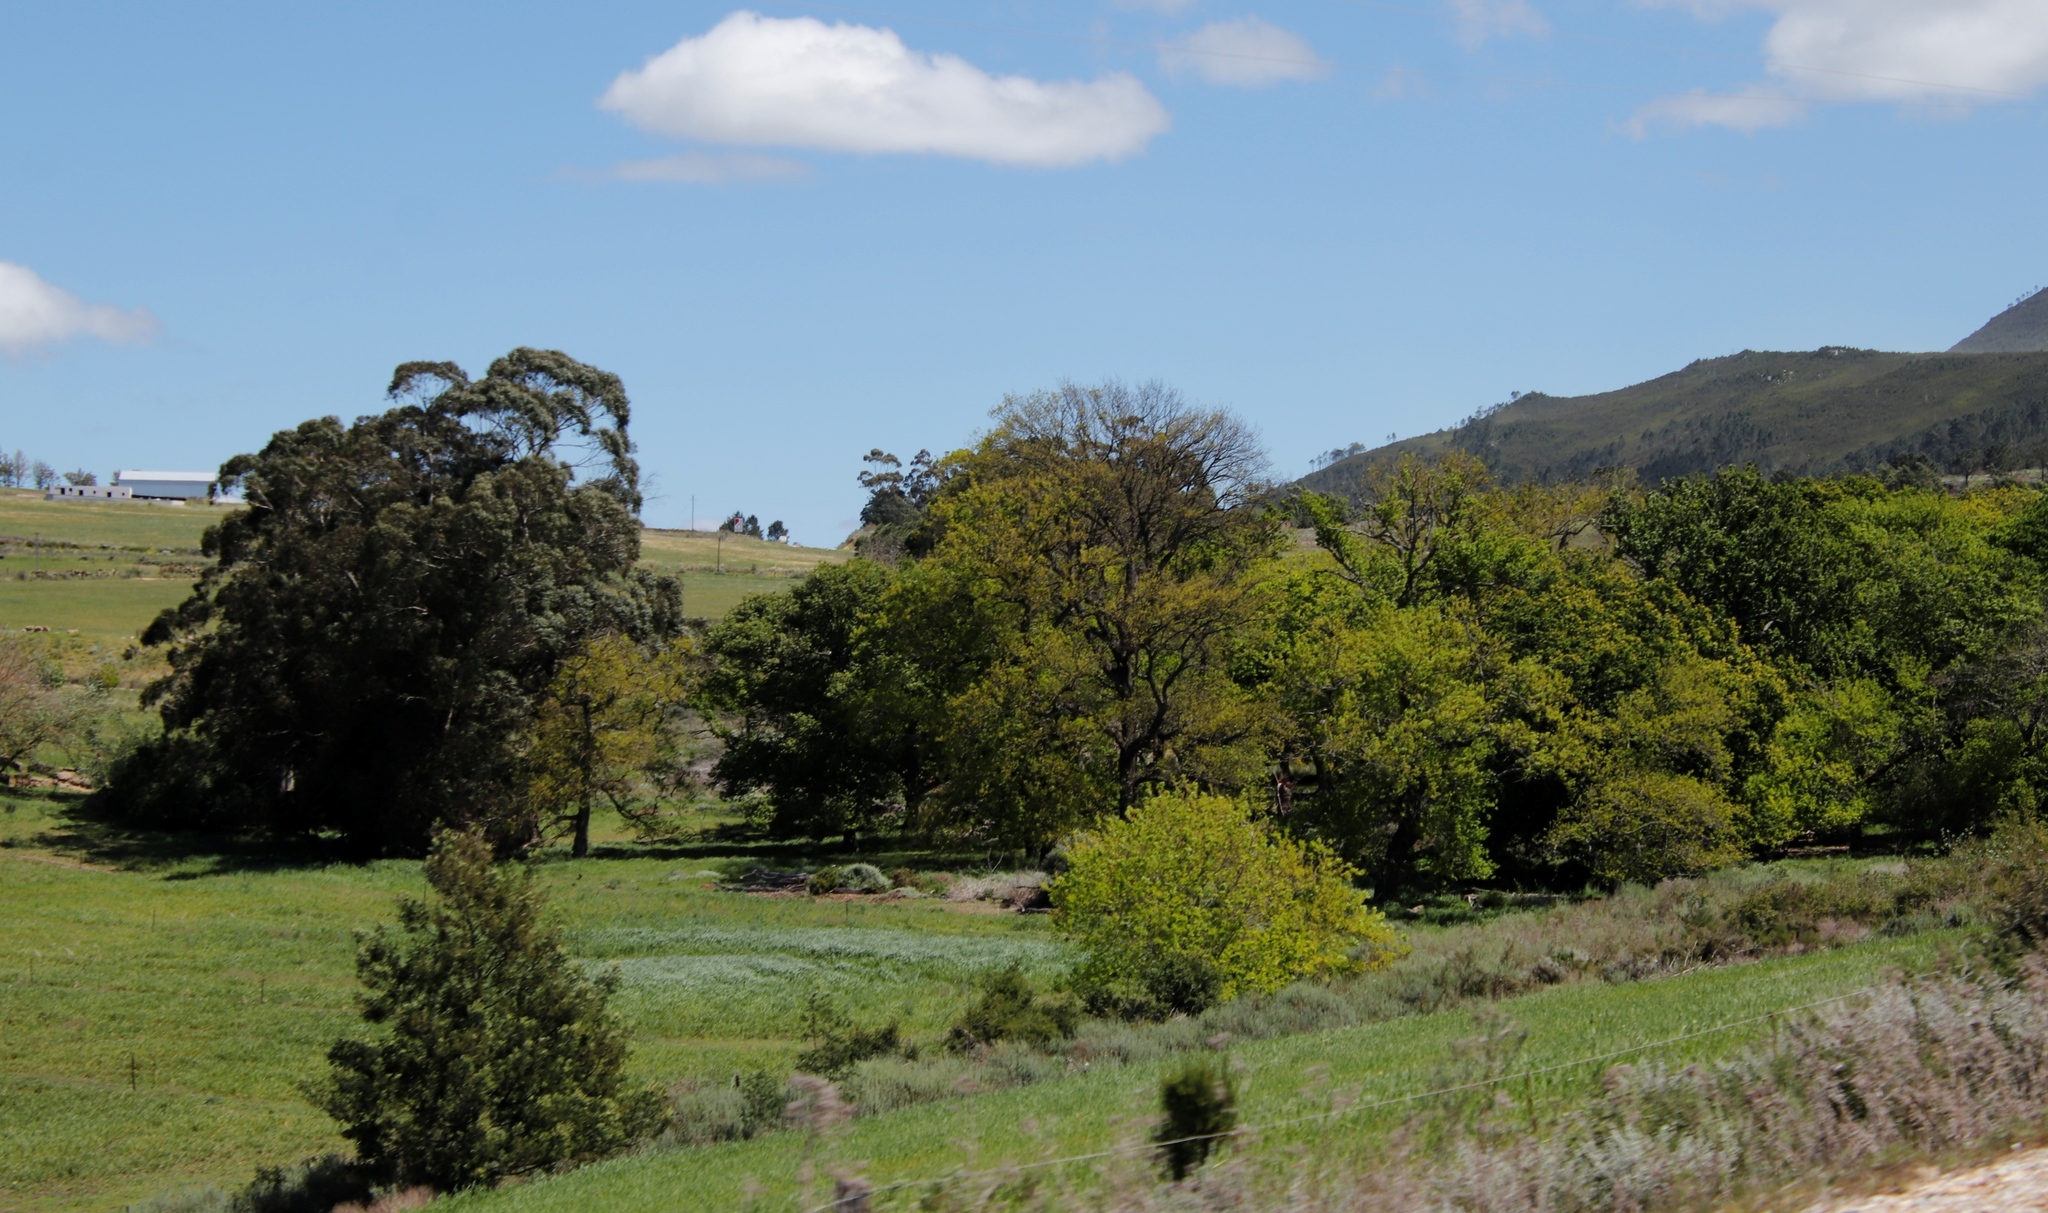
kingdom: Plantae
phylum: Tracheophyta
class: Magnoliopsida
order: Fagales
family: Fagaceae
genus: Quercus
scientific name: Quercus robur
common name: Pedunculate oak
